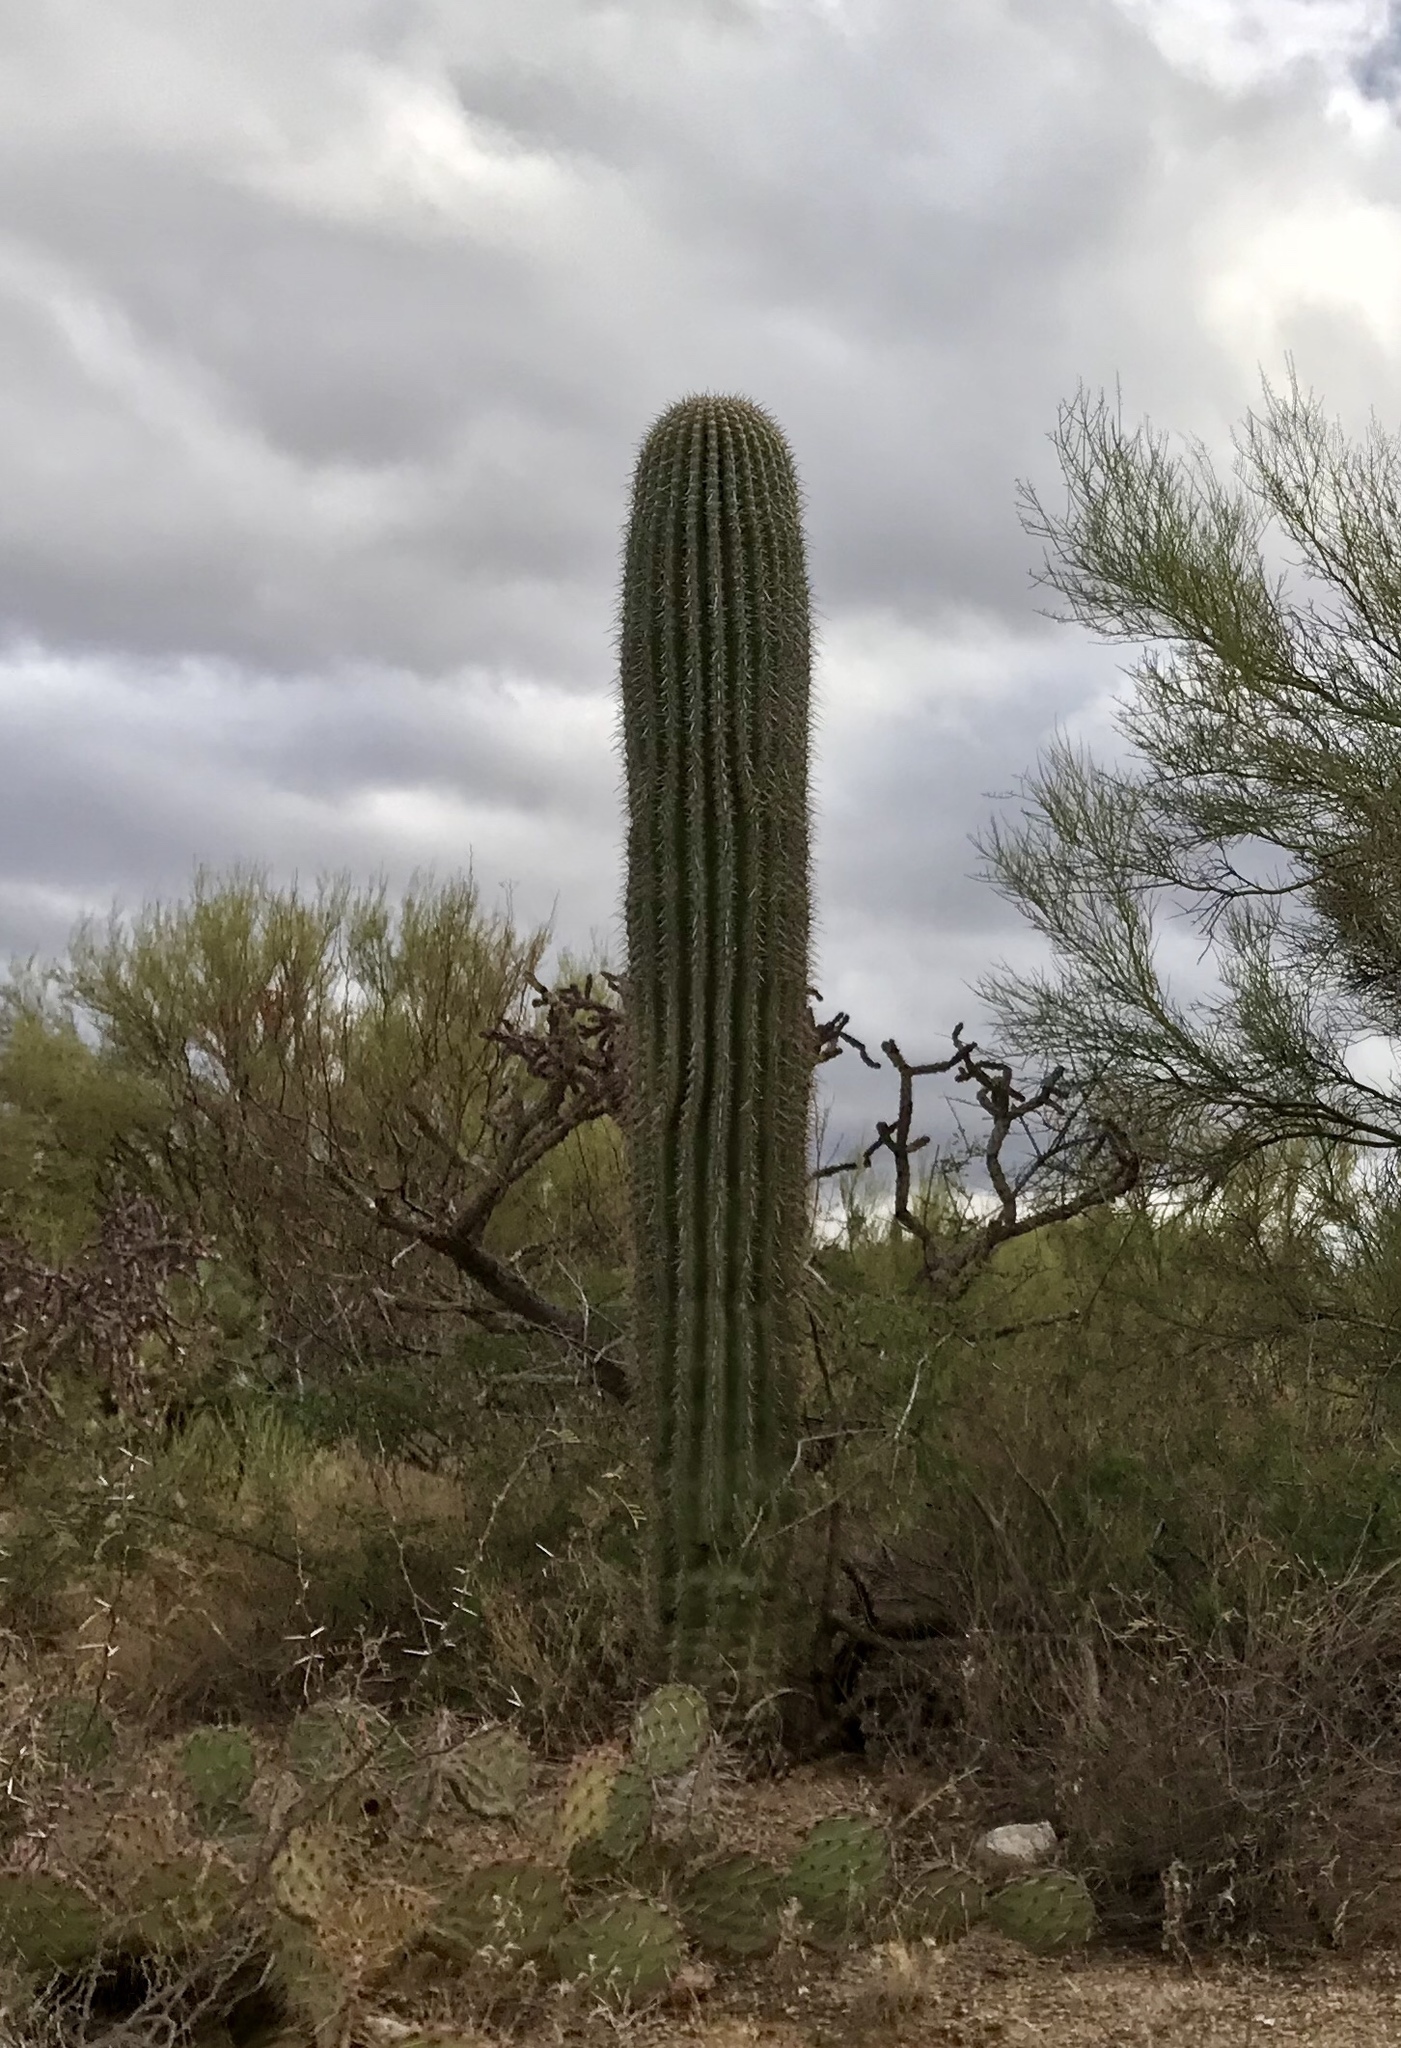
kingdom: Plantae
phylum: Tracheophyta
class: Magnoliopsida
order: Caryophyllales
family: Cactaceae
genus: Carnegiea
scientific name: Carnegiea gigantea
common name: Saguaro
